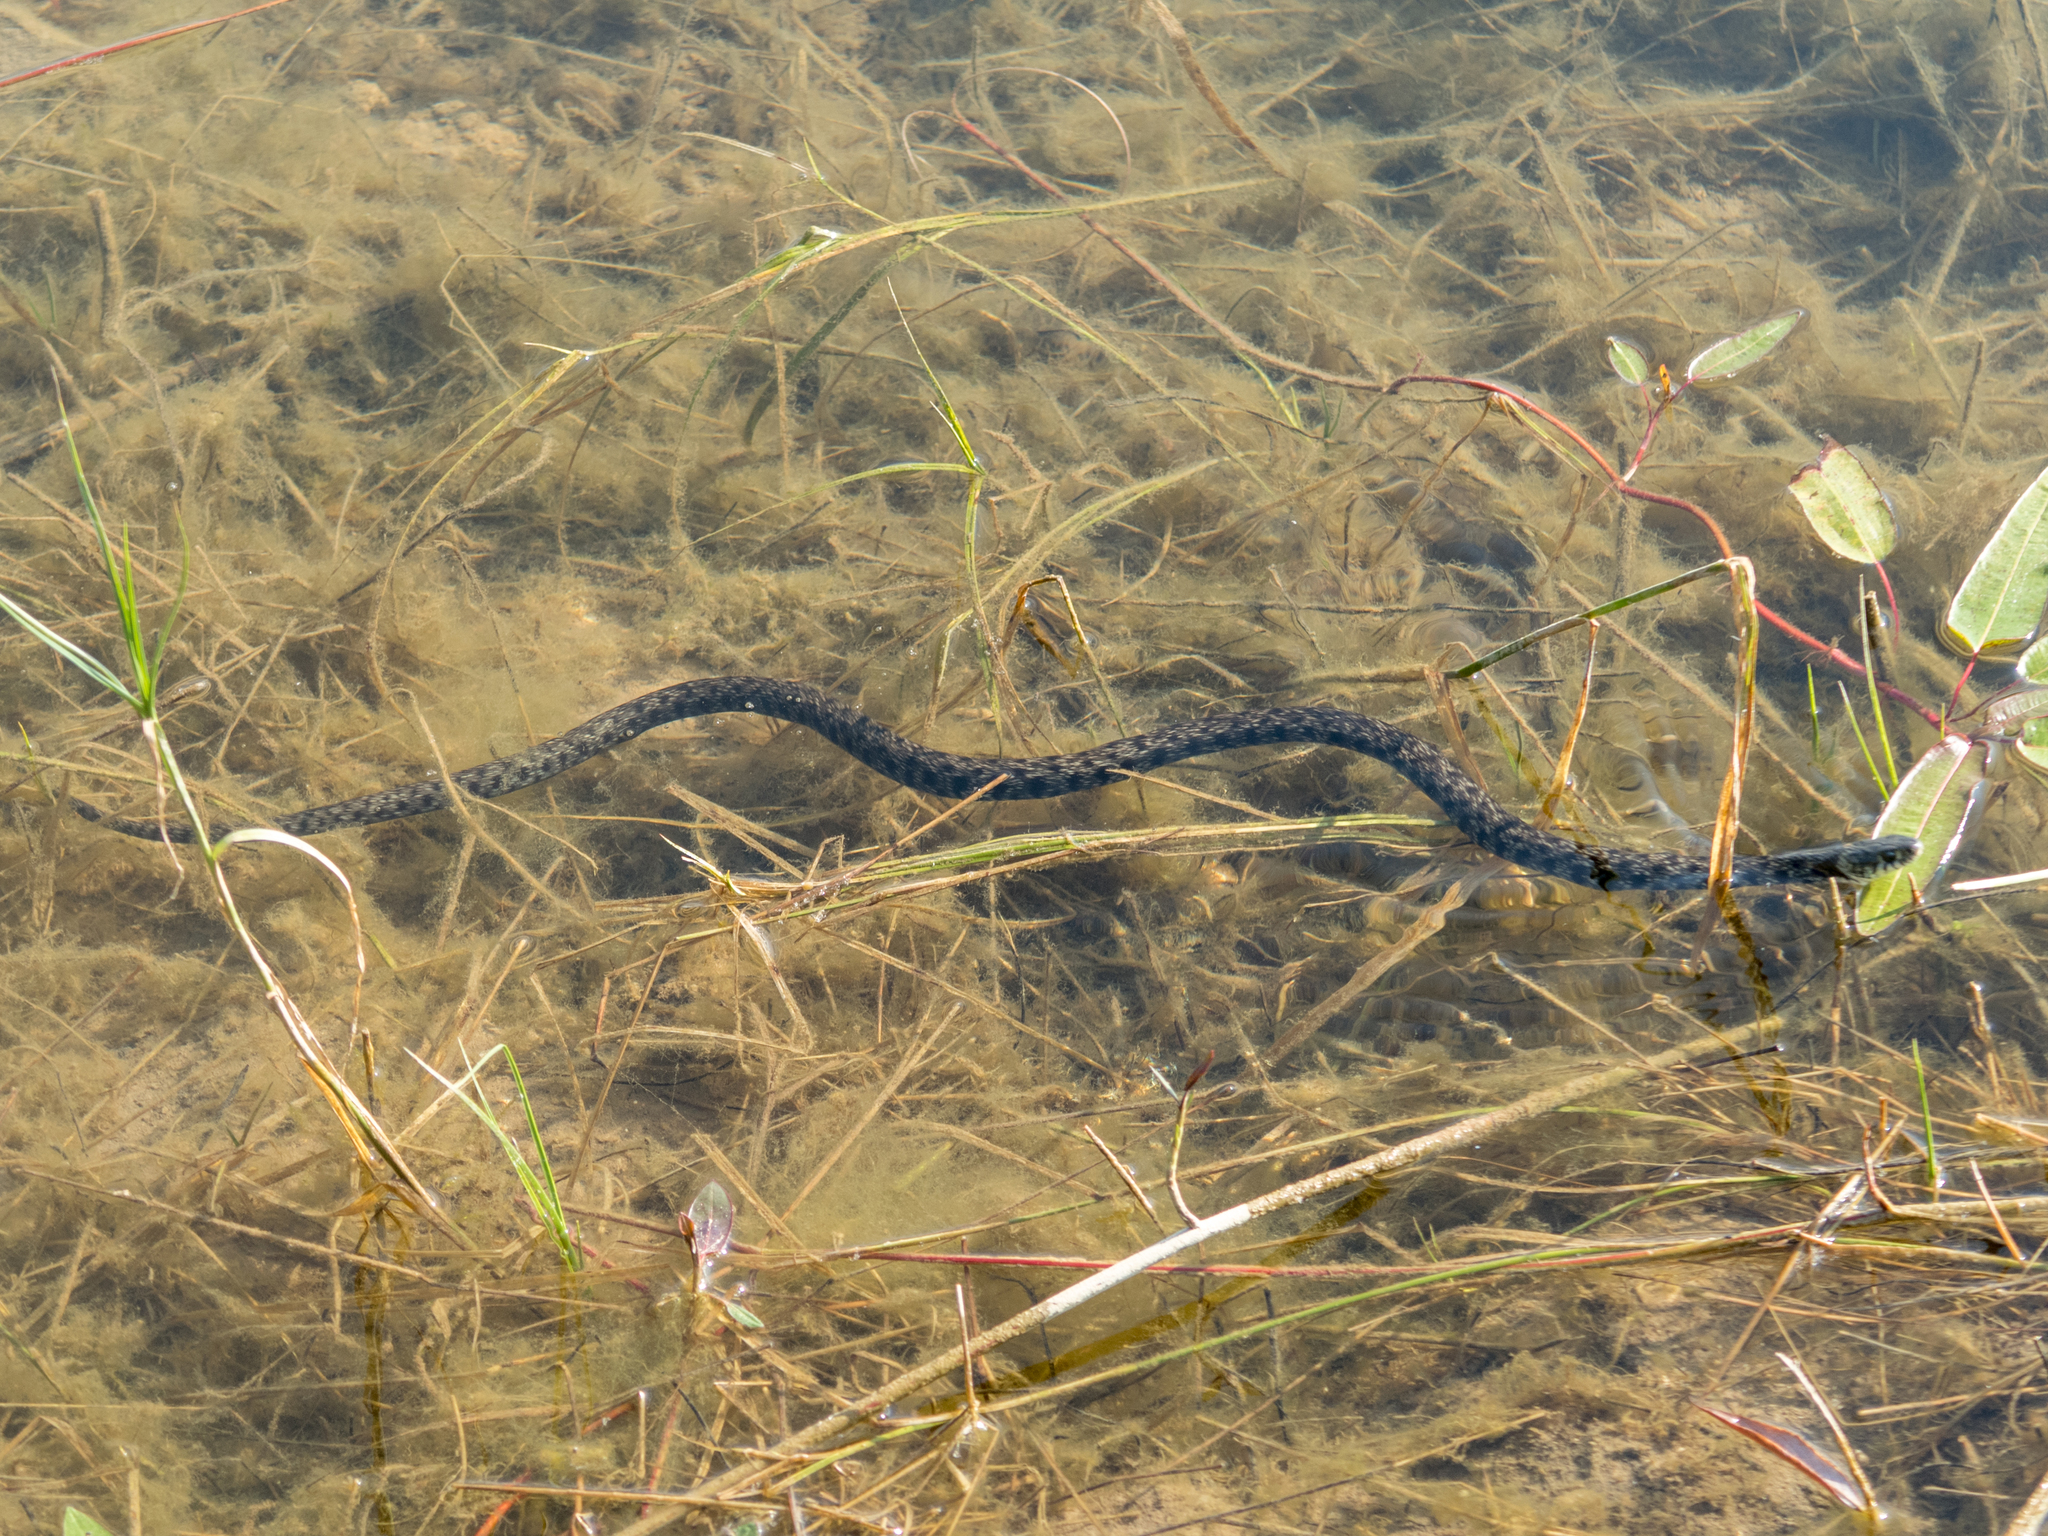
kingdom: Animalia
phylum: Chordata
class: Squamata
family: Colubridae
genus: Natrix
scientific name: Natrix helvetica
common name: Banded grass snake
